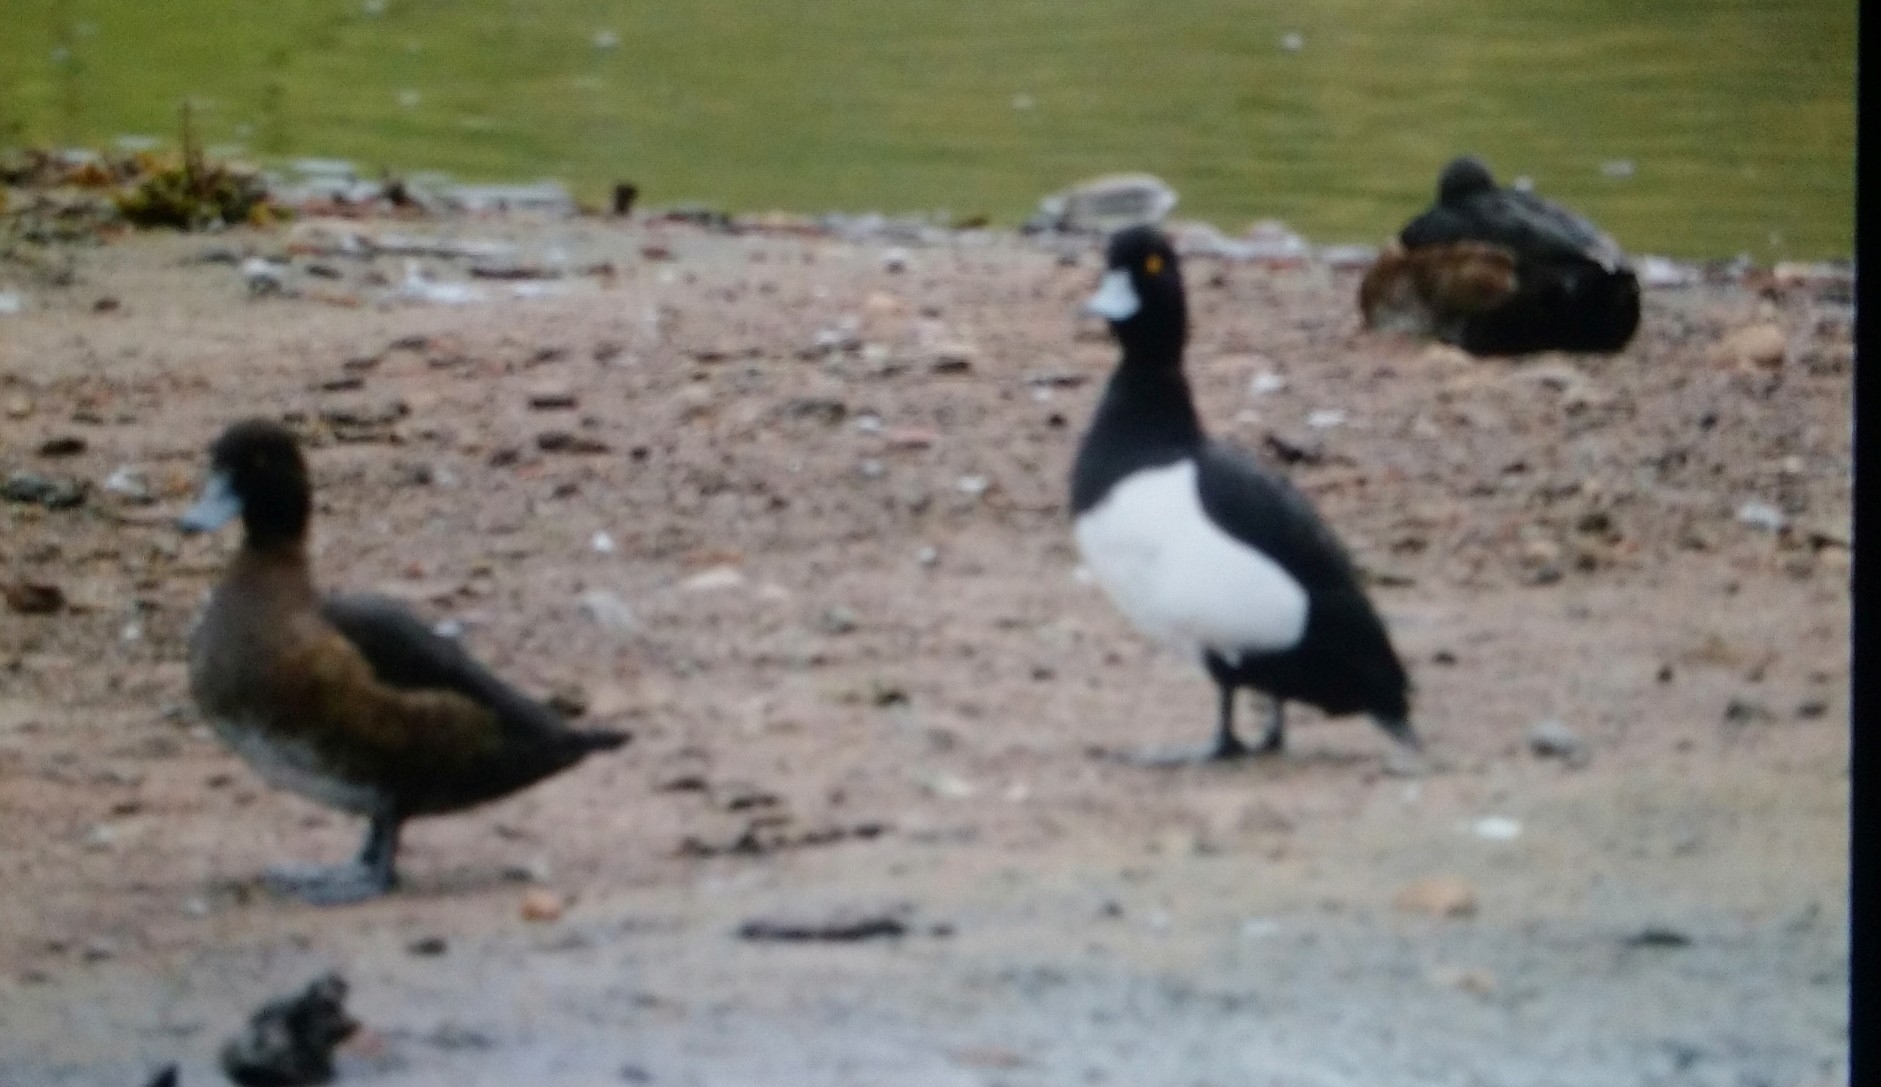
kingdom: Animalia
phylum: Chordata
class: Aves
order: Anseriformes
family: Anatidae
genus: Aythya
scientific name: Aythya fuligula
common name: Tufted duck
